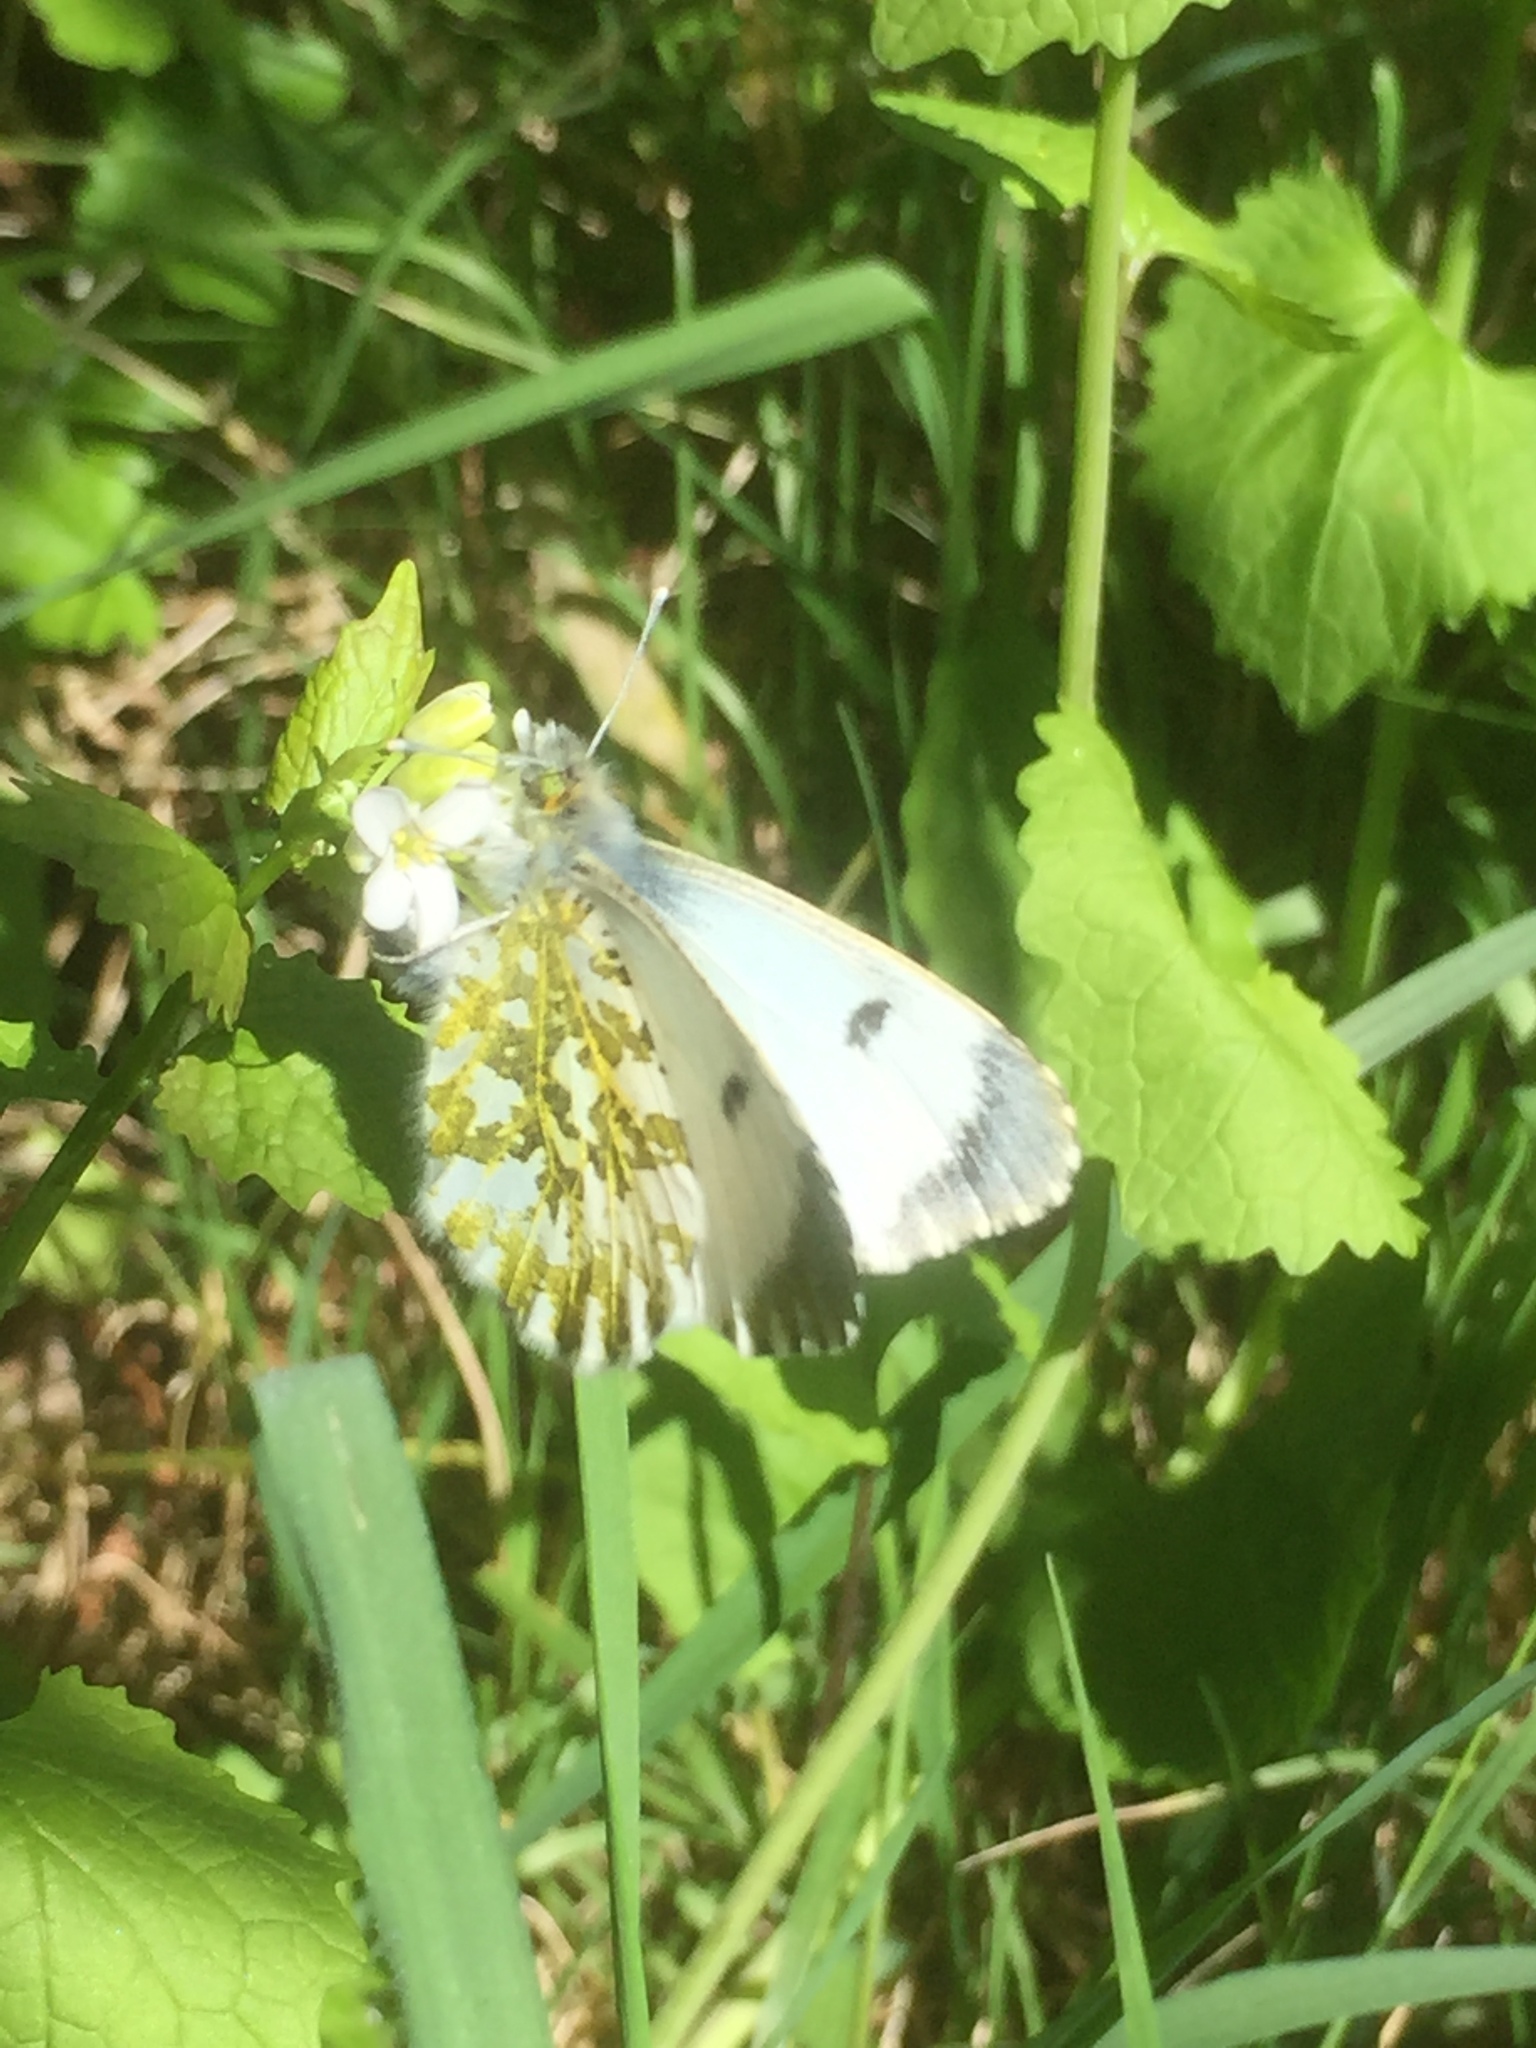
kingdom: Animalia
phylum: Arthropoda
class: Insecta
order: Lepidoptera
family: Pieridae
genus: Anthocharis
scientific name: Anthocharis cardamines
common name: Orange-tip
